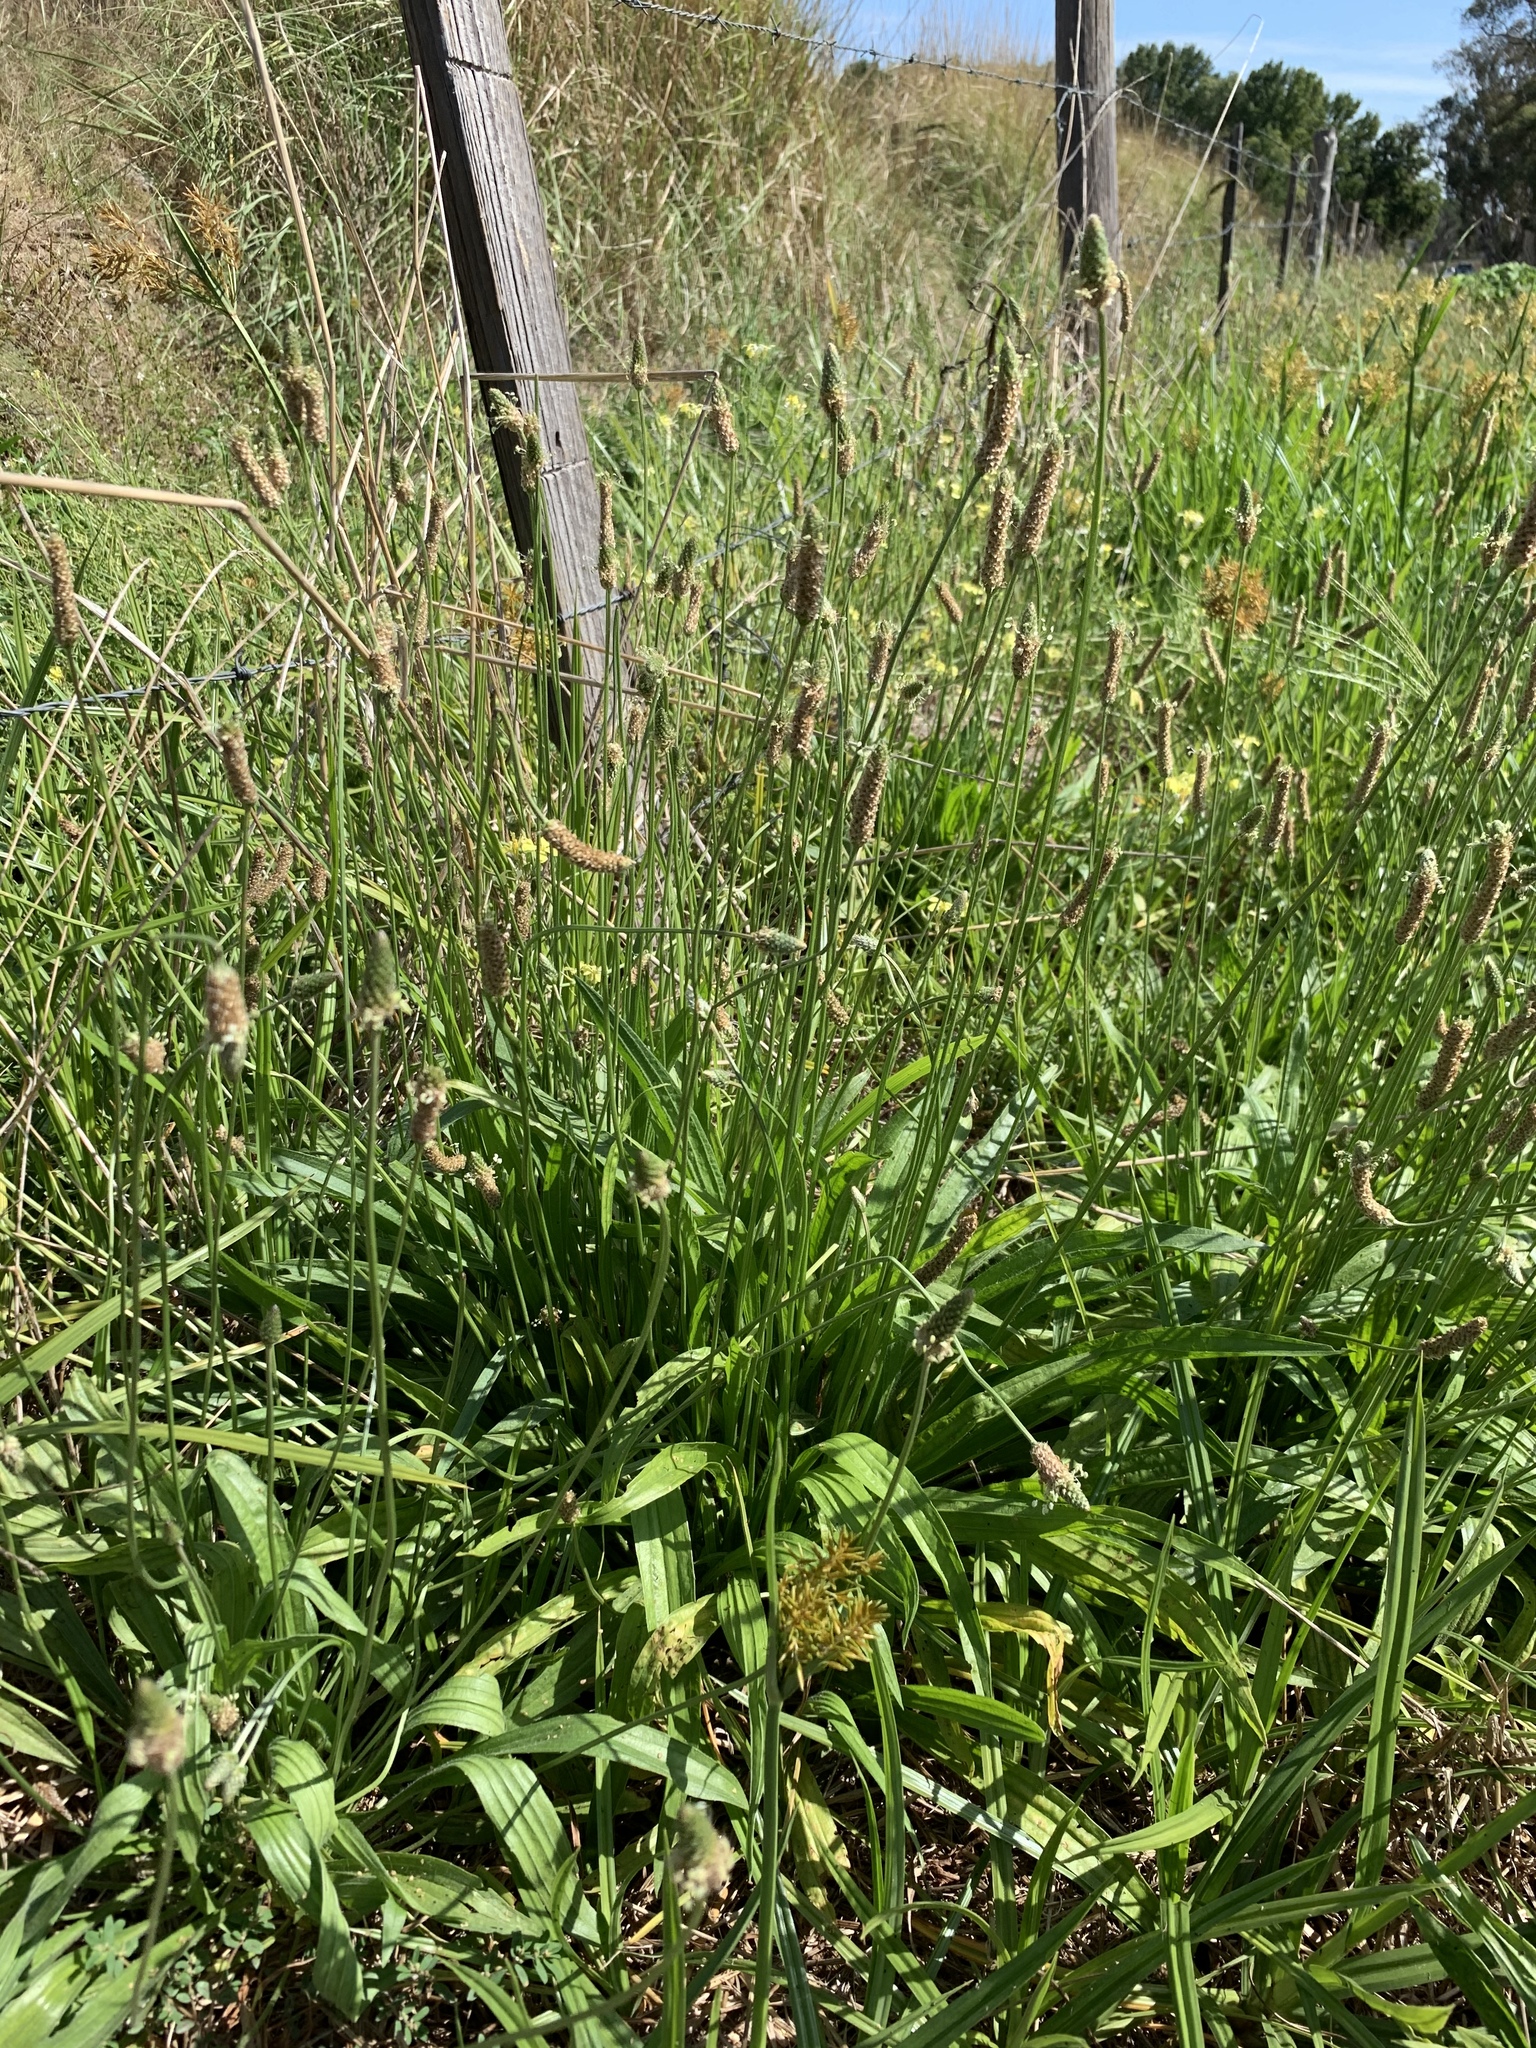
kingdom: Plantae
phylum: Tracheophyta
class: Magnoliopsida
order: Lamiales
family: Plantaginaceae
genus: Plantago
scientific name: Plantago lanceolata
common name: Ribwort plantain
